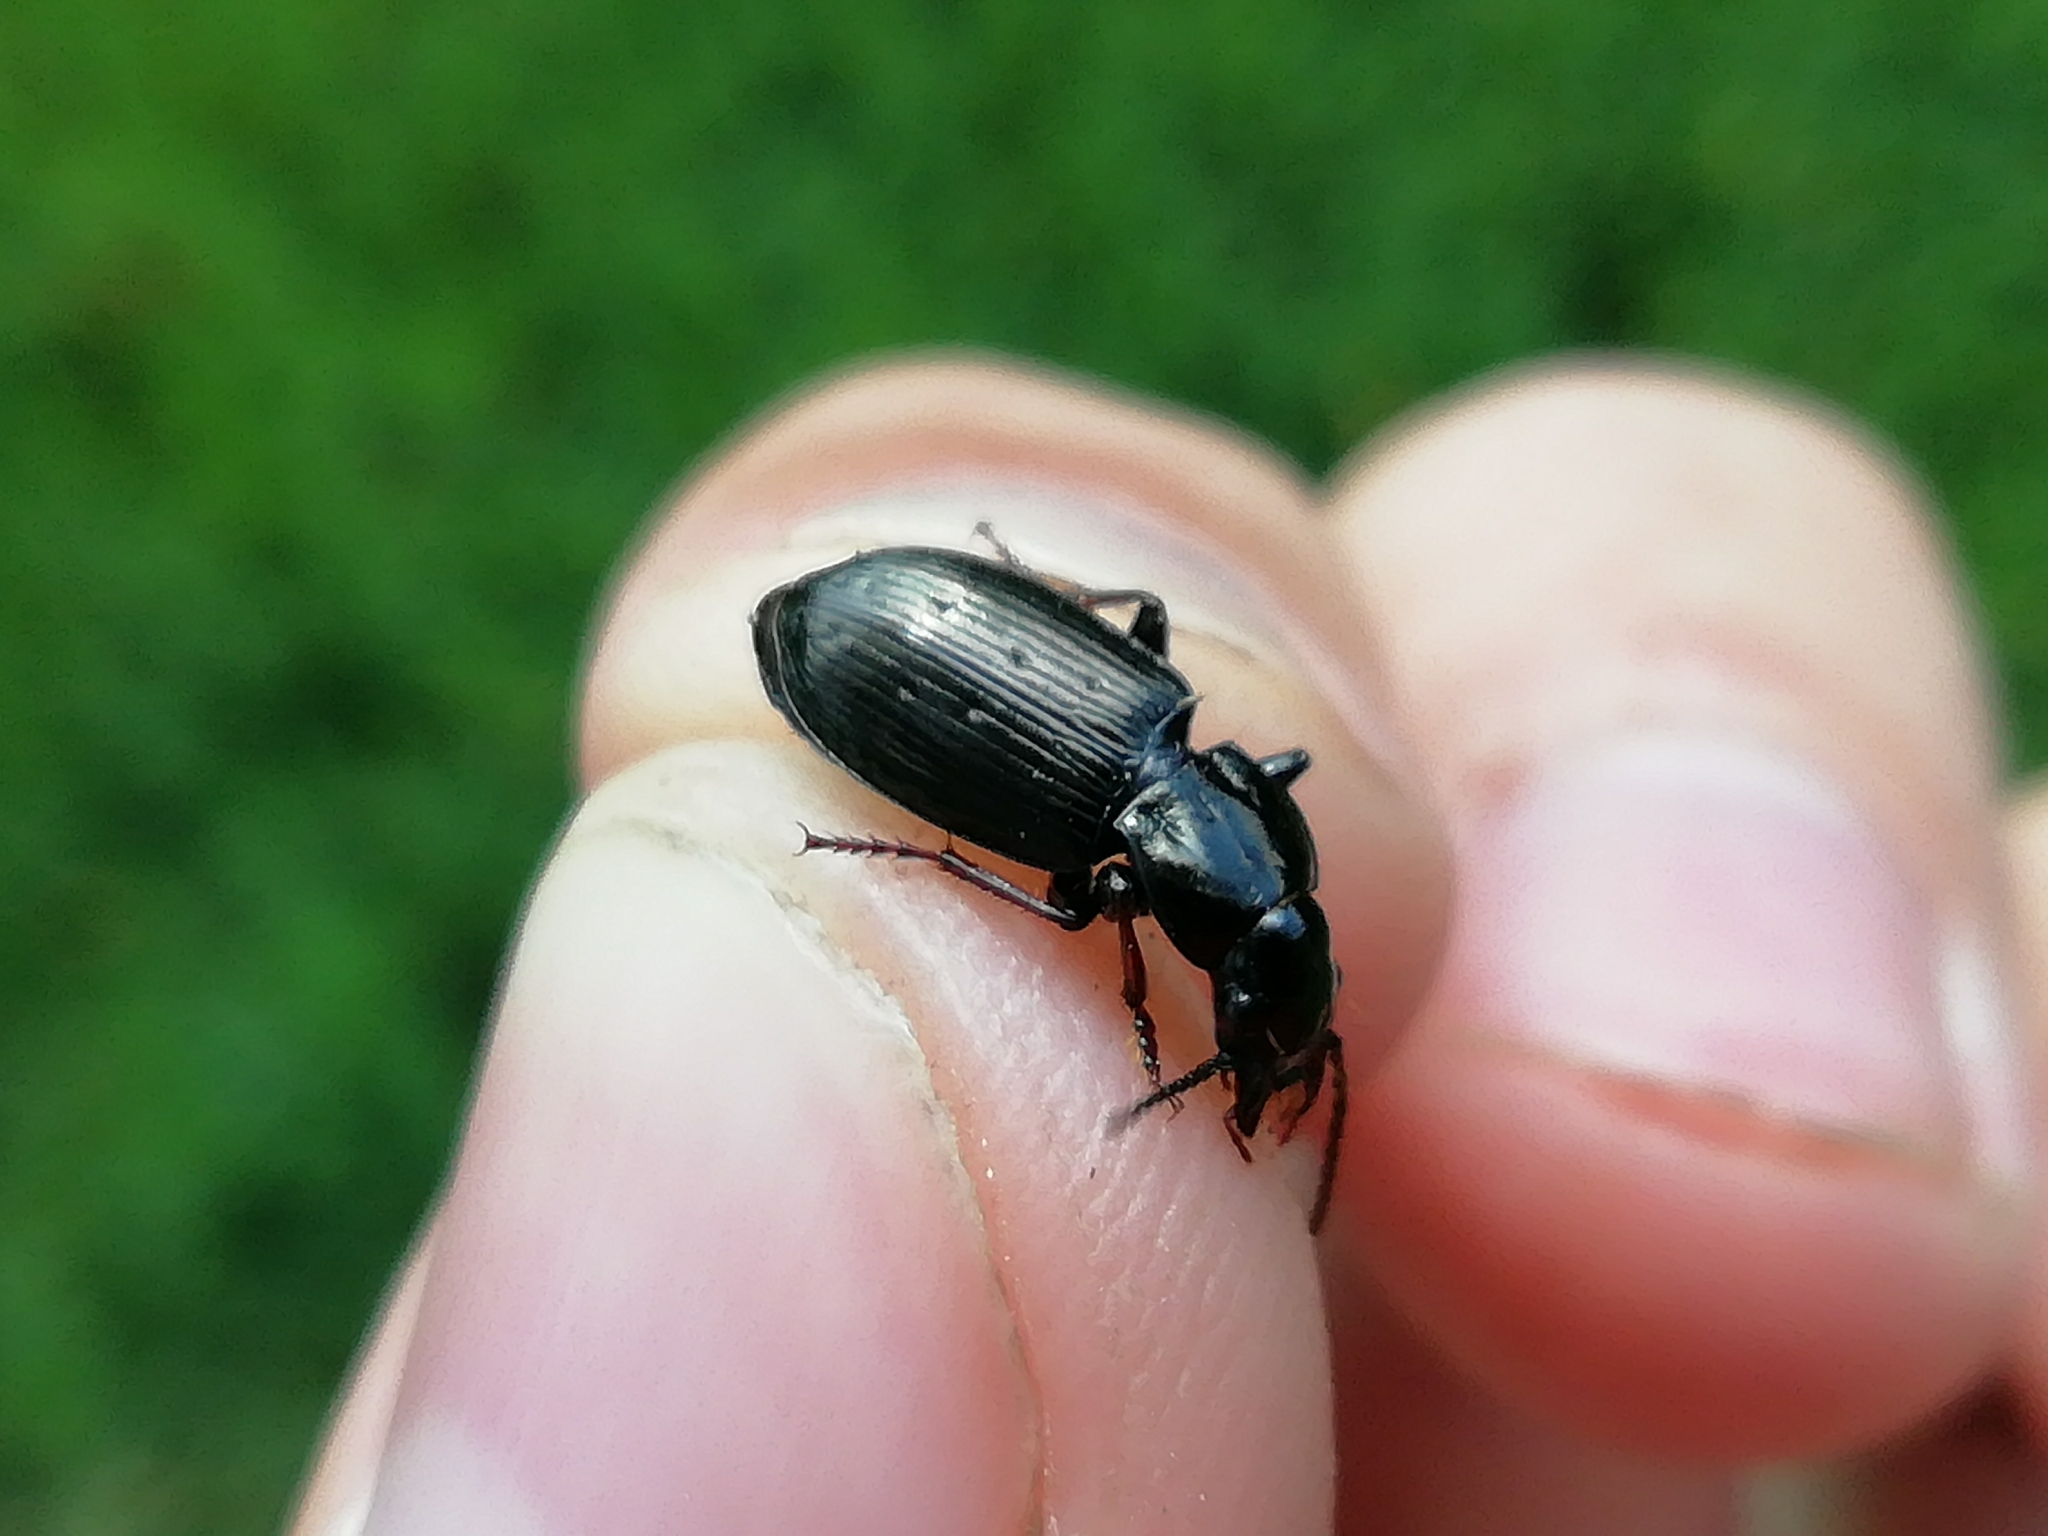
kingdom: Animalia
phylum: Arthropoda
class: Insecta
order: Coleoptera
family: Carabidae
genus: Pterostichus
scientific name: Pterostichus oblongopunctatus
